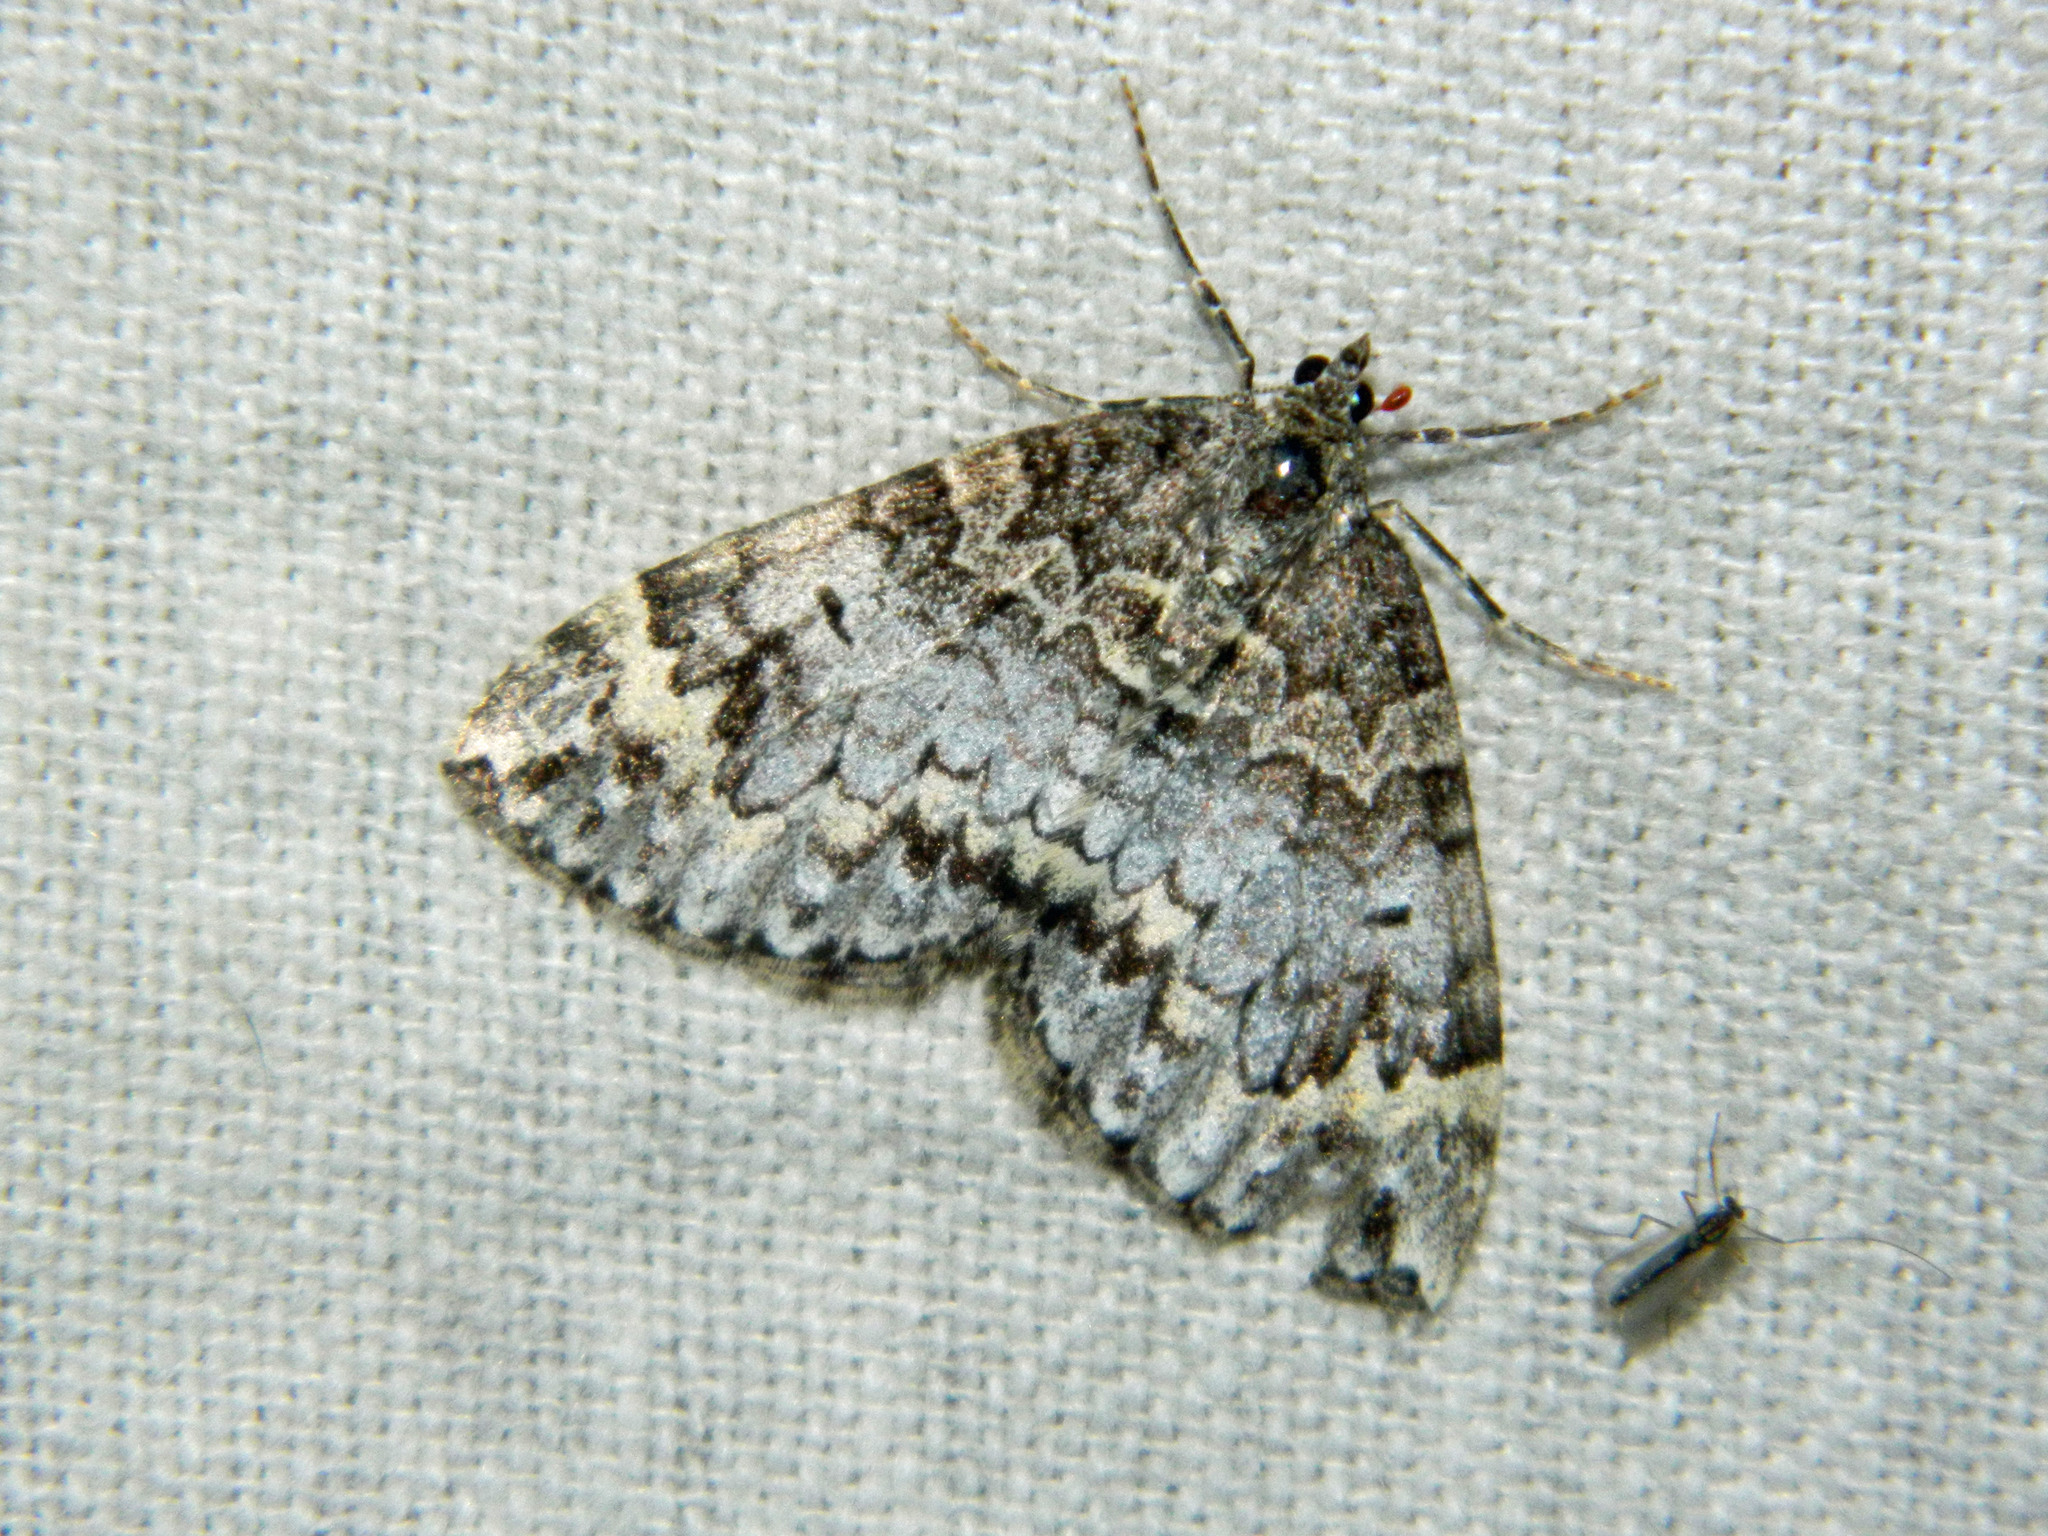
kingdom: Animalia
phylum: Arthropoda
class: Insecta
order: Lepidoptera
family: Geometridae
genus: Dysstroma
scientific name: Dysstroma walkerata
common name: Marbled carpet
